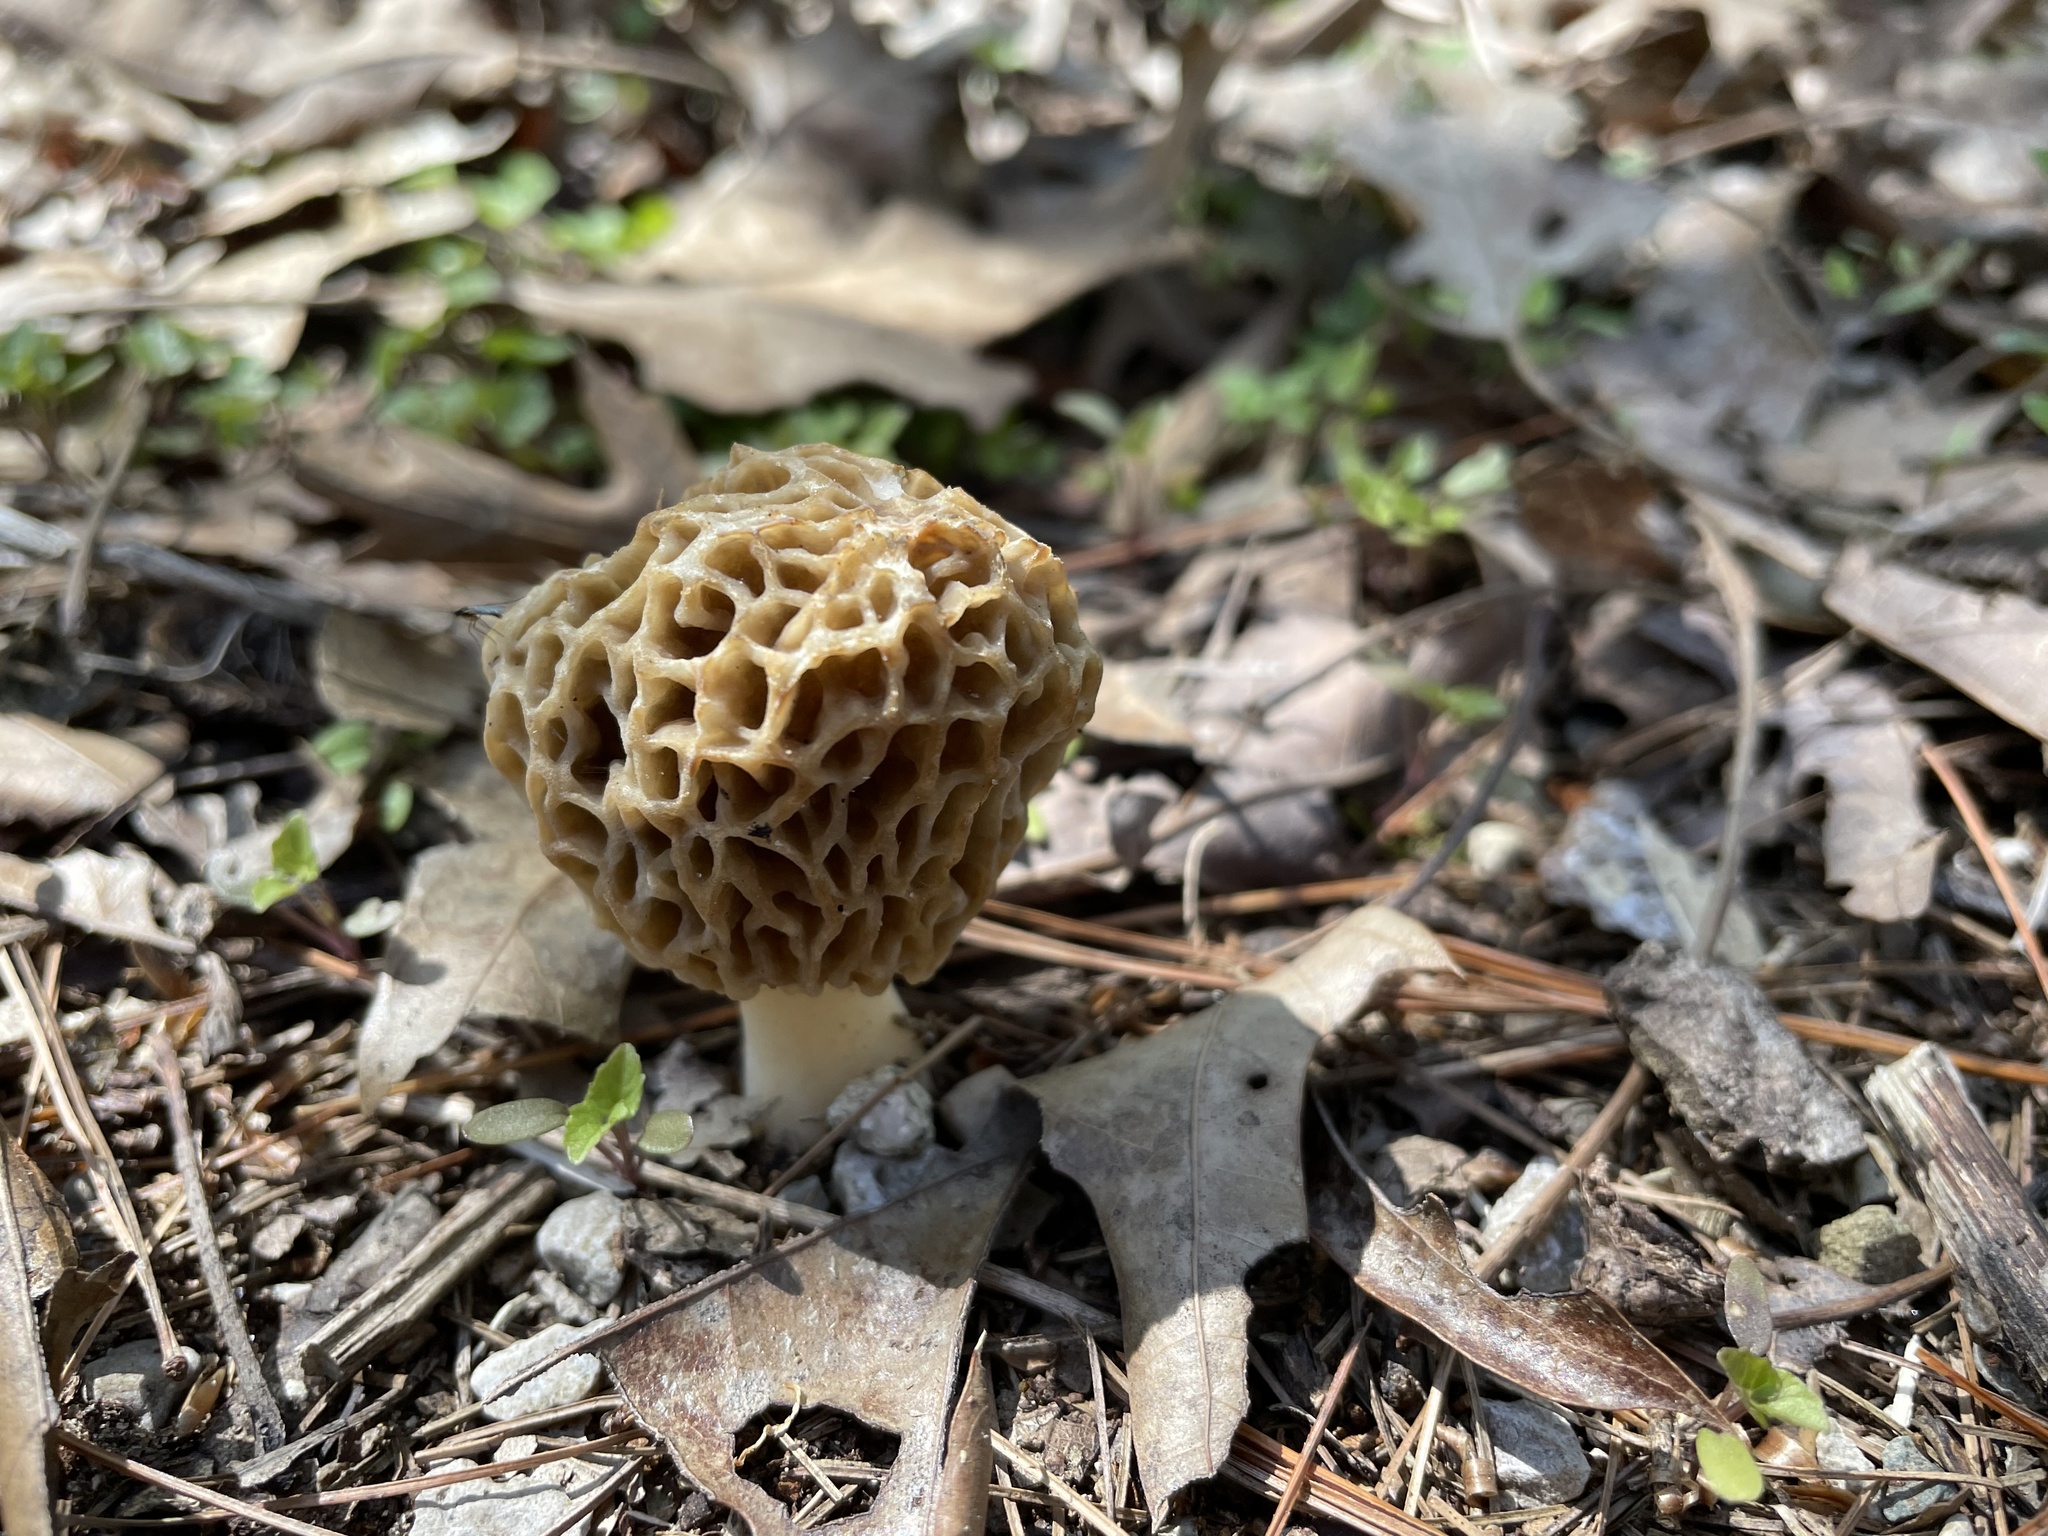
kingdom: Fungi
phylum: Ascomycota
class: Pezizomycetes
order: Pezizales
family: Morchellaceae
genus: Morchella
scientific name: Morchella americana
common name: White morel
